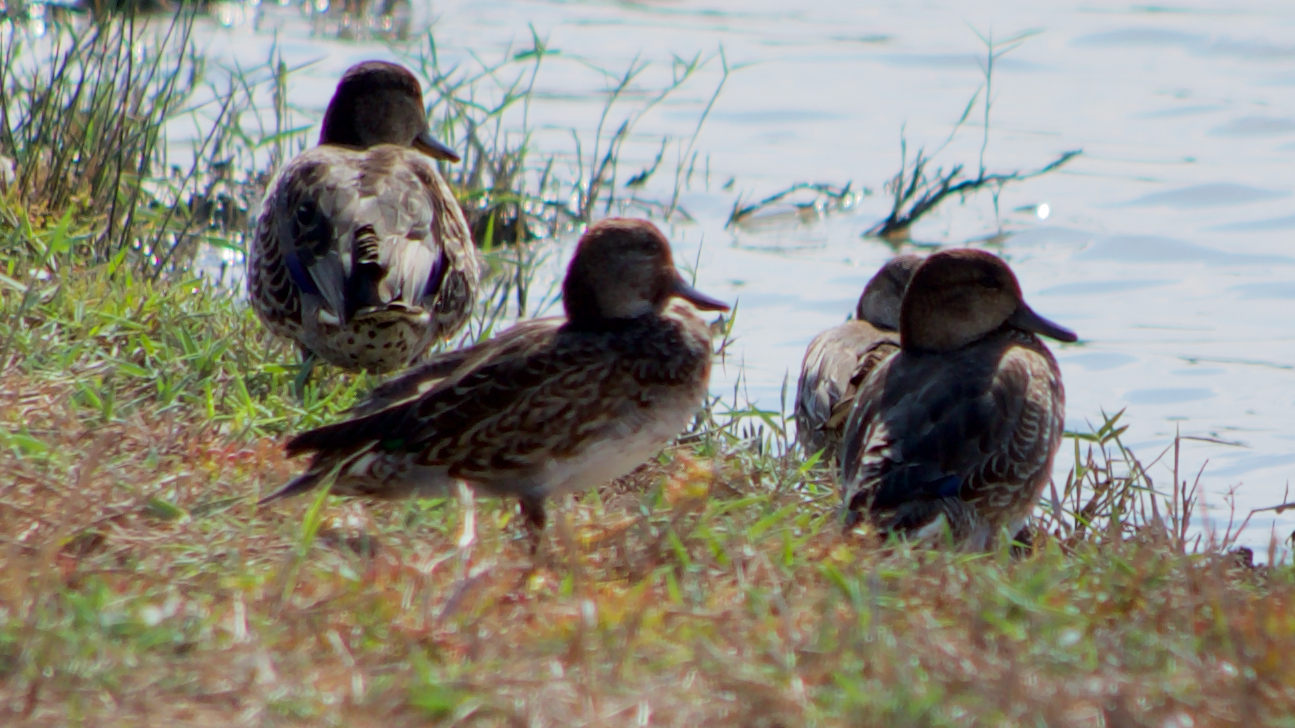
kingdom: Animalia
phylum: Chordata
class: Aves
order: Anseriformes
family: Anatidae
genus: Anas
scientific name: Anas crecca
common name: Eurasian teal
